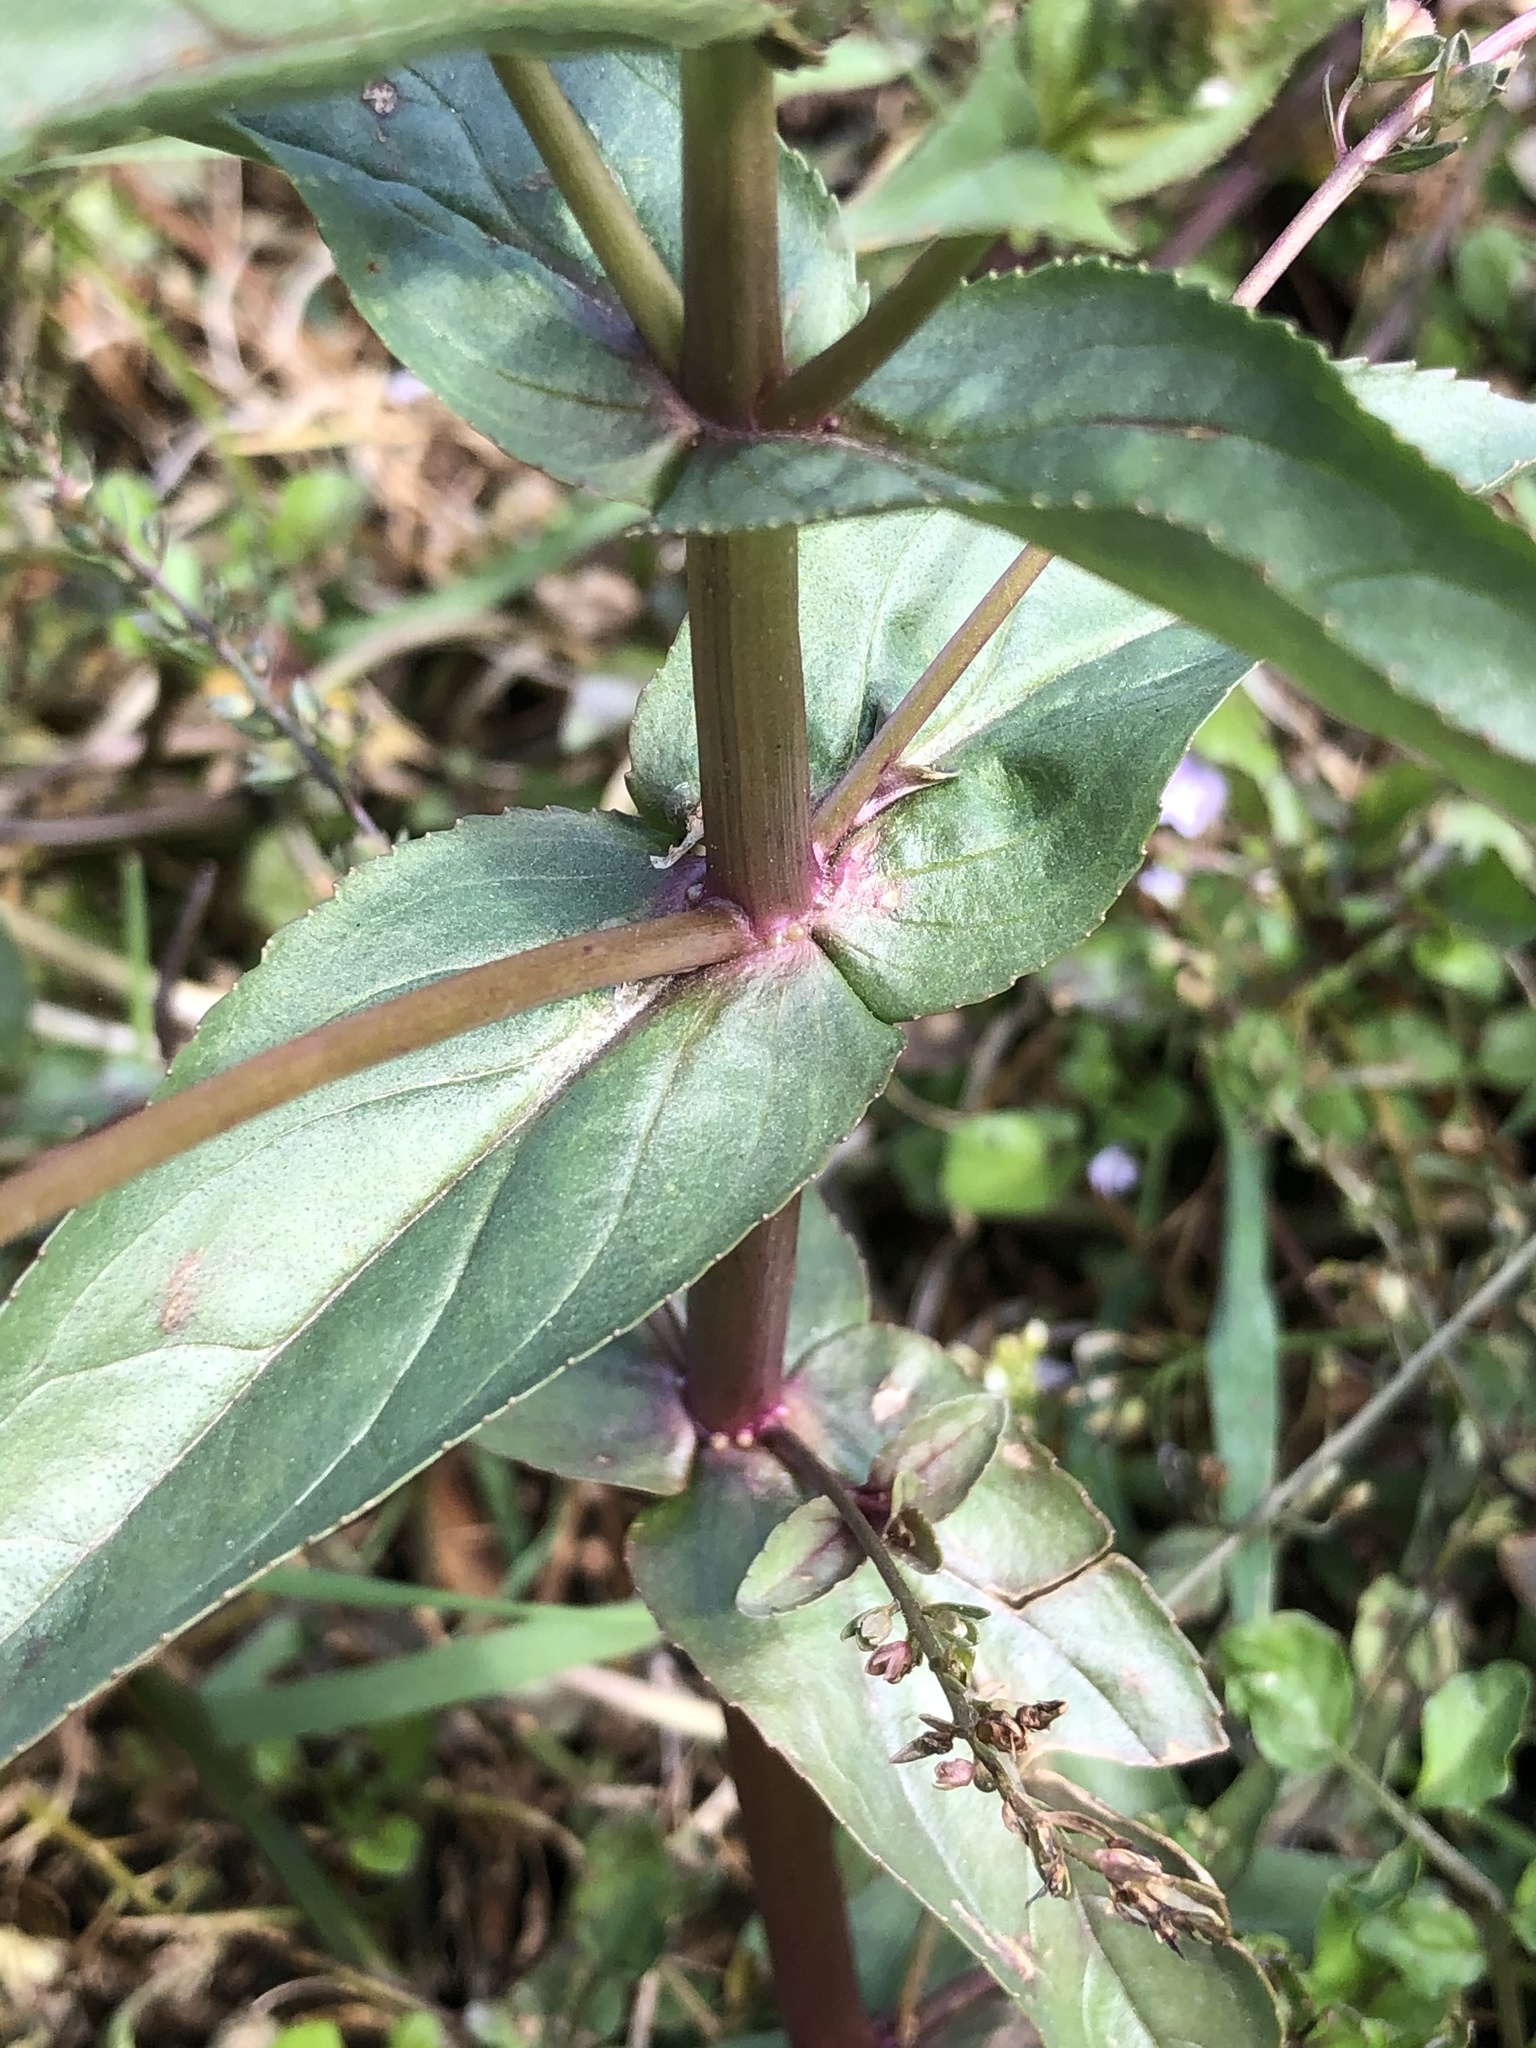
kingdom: Plantae
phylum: Tracheophyta
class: Magnoliopsida
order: Lamiales
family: Plantaginaceae
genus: Veronica
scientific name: Veronica anagallis-aquatica
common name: Water speedwell
